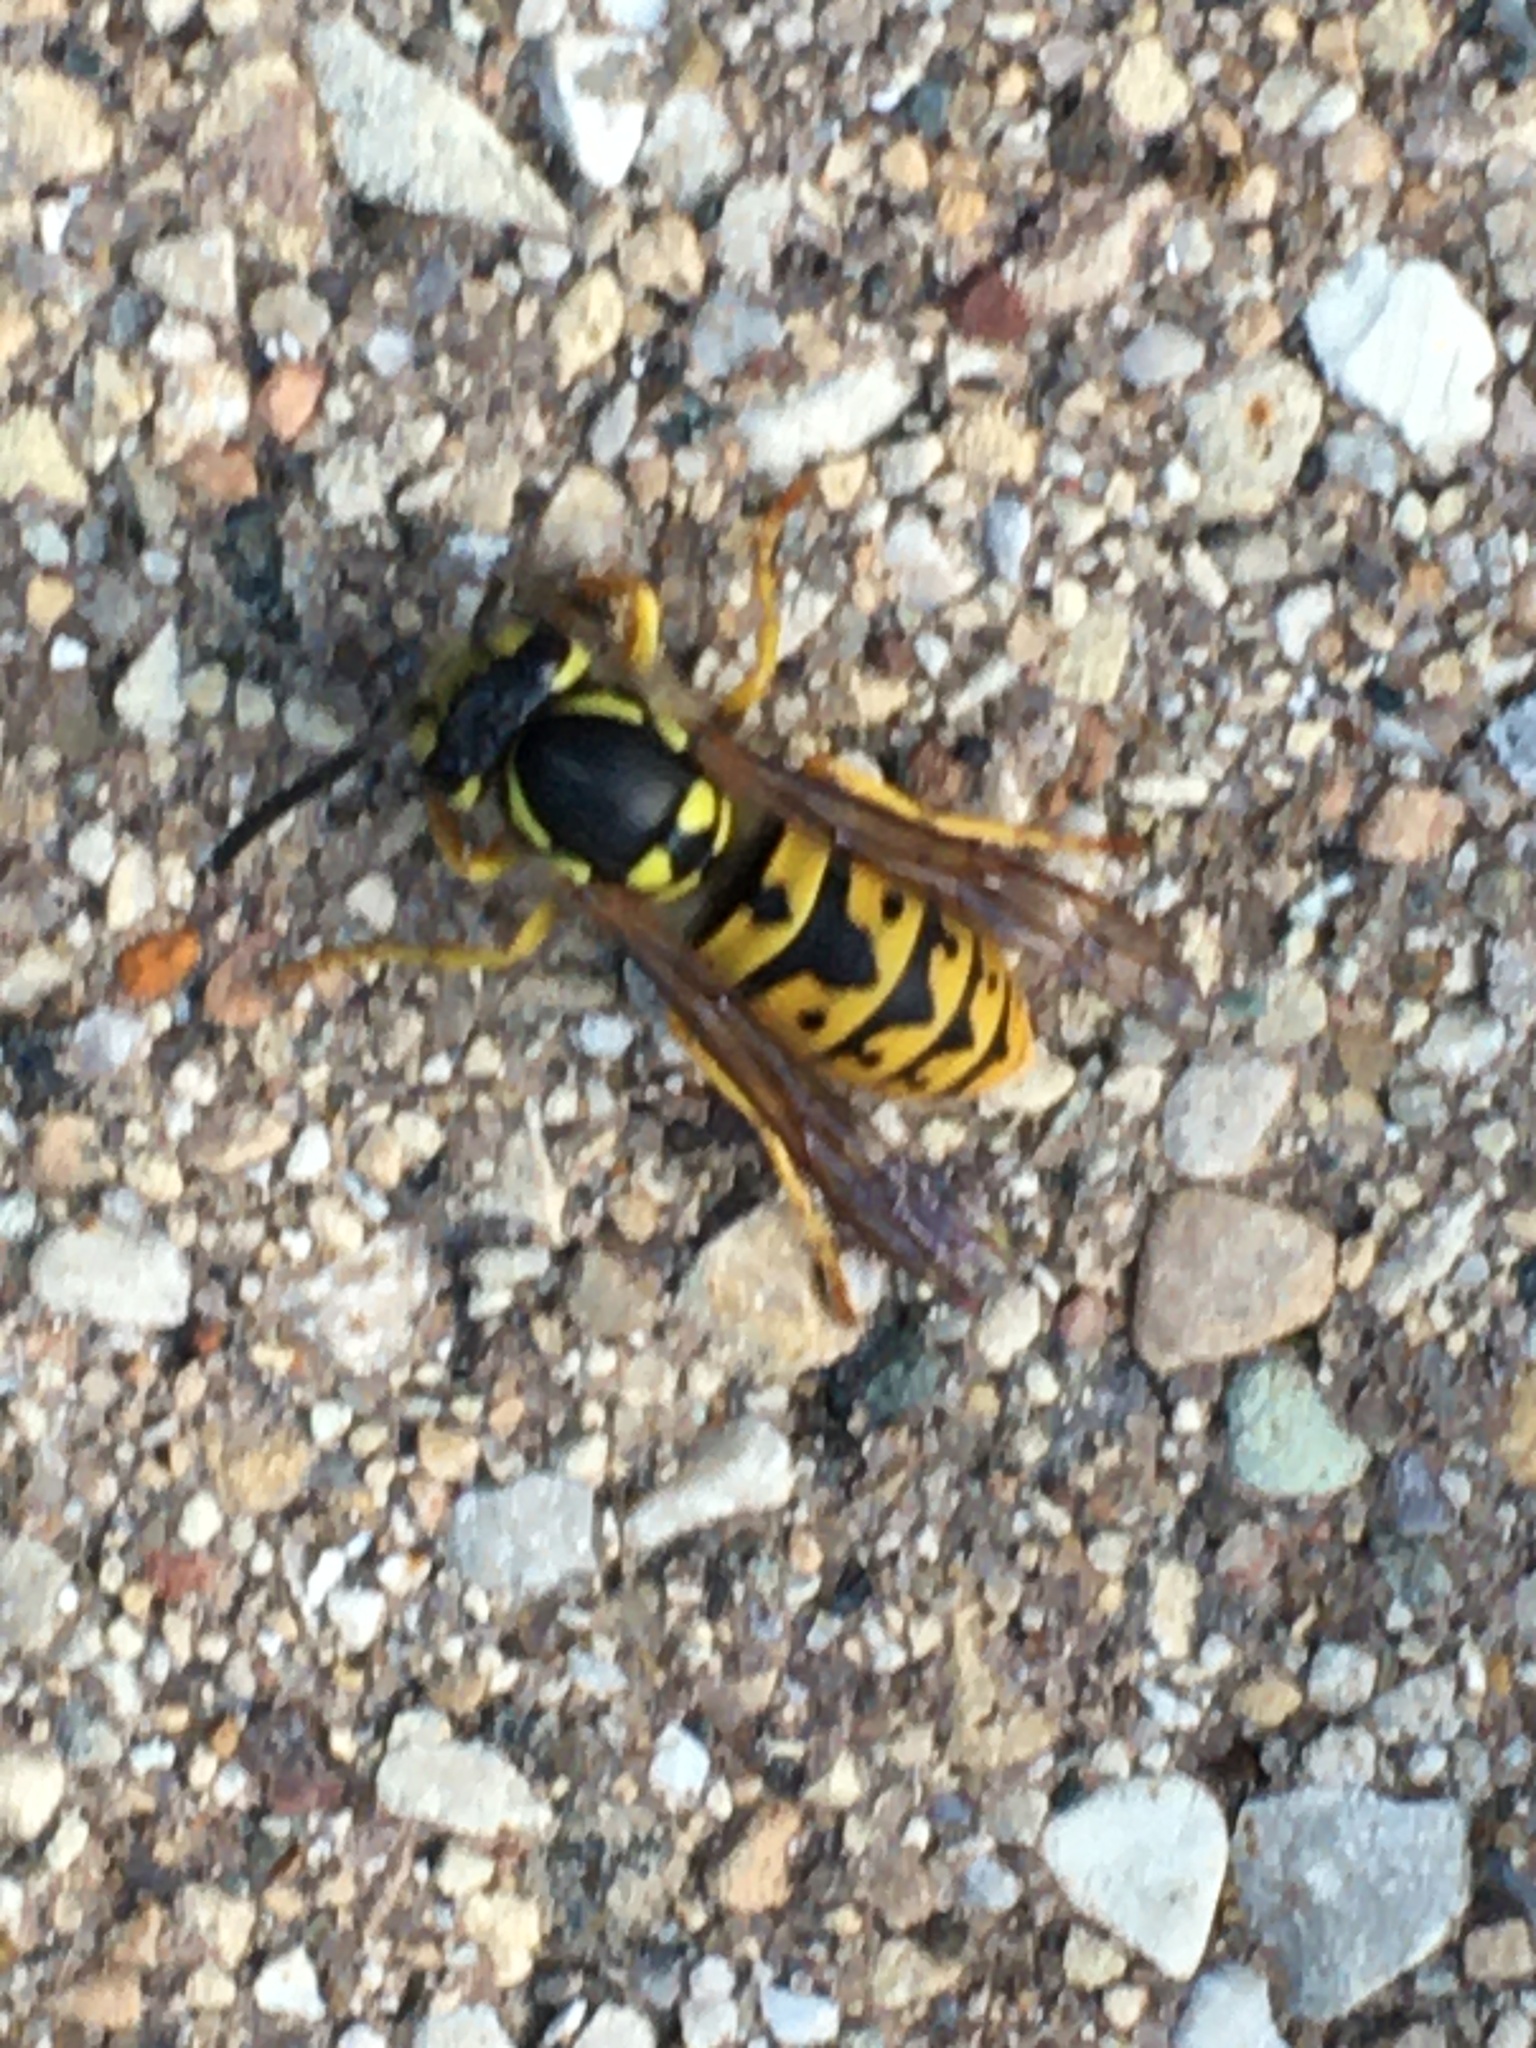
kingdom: Animalia
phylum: Arthropoda
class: Insecta
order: Hymenoptera
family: Vespidae
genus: Vespula
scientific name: Vespula germanica
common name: German wasp
